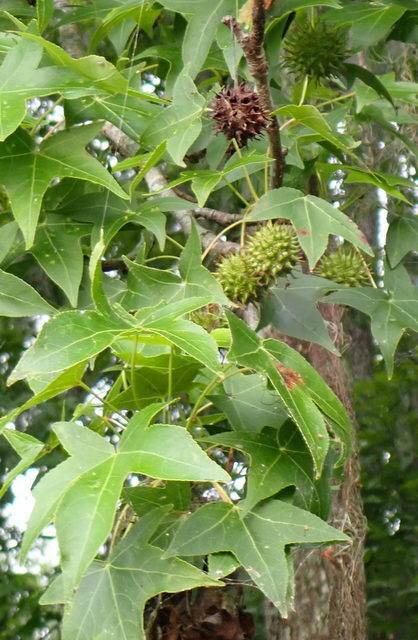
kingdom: Plantae
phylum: Tracheophyta
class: Magnoliopsida
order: Saxifragales
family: Altingiaceae
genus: Liquidambar
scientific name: Liquidambar styraciflua
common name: Sweet gum
